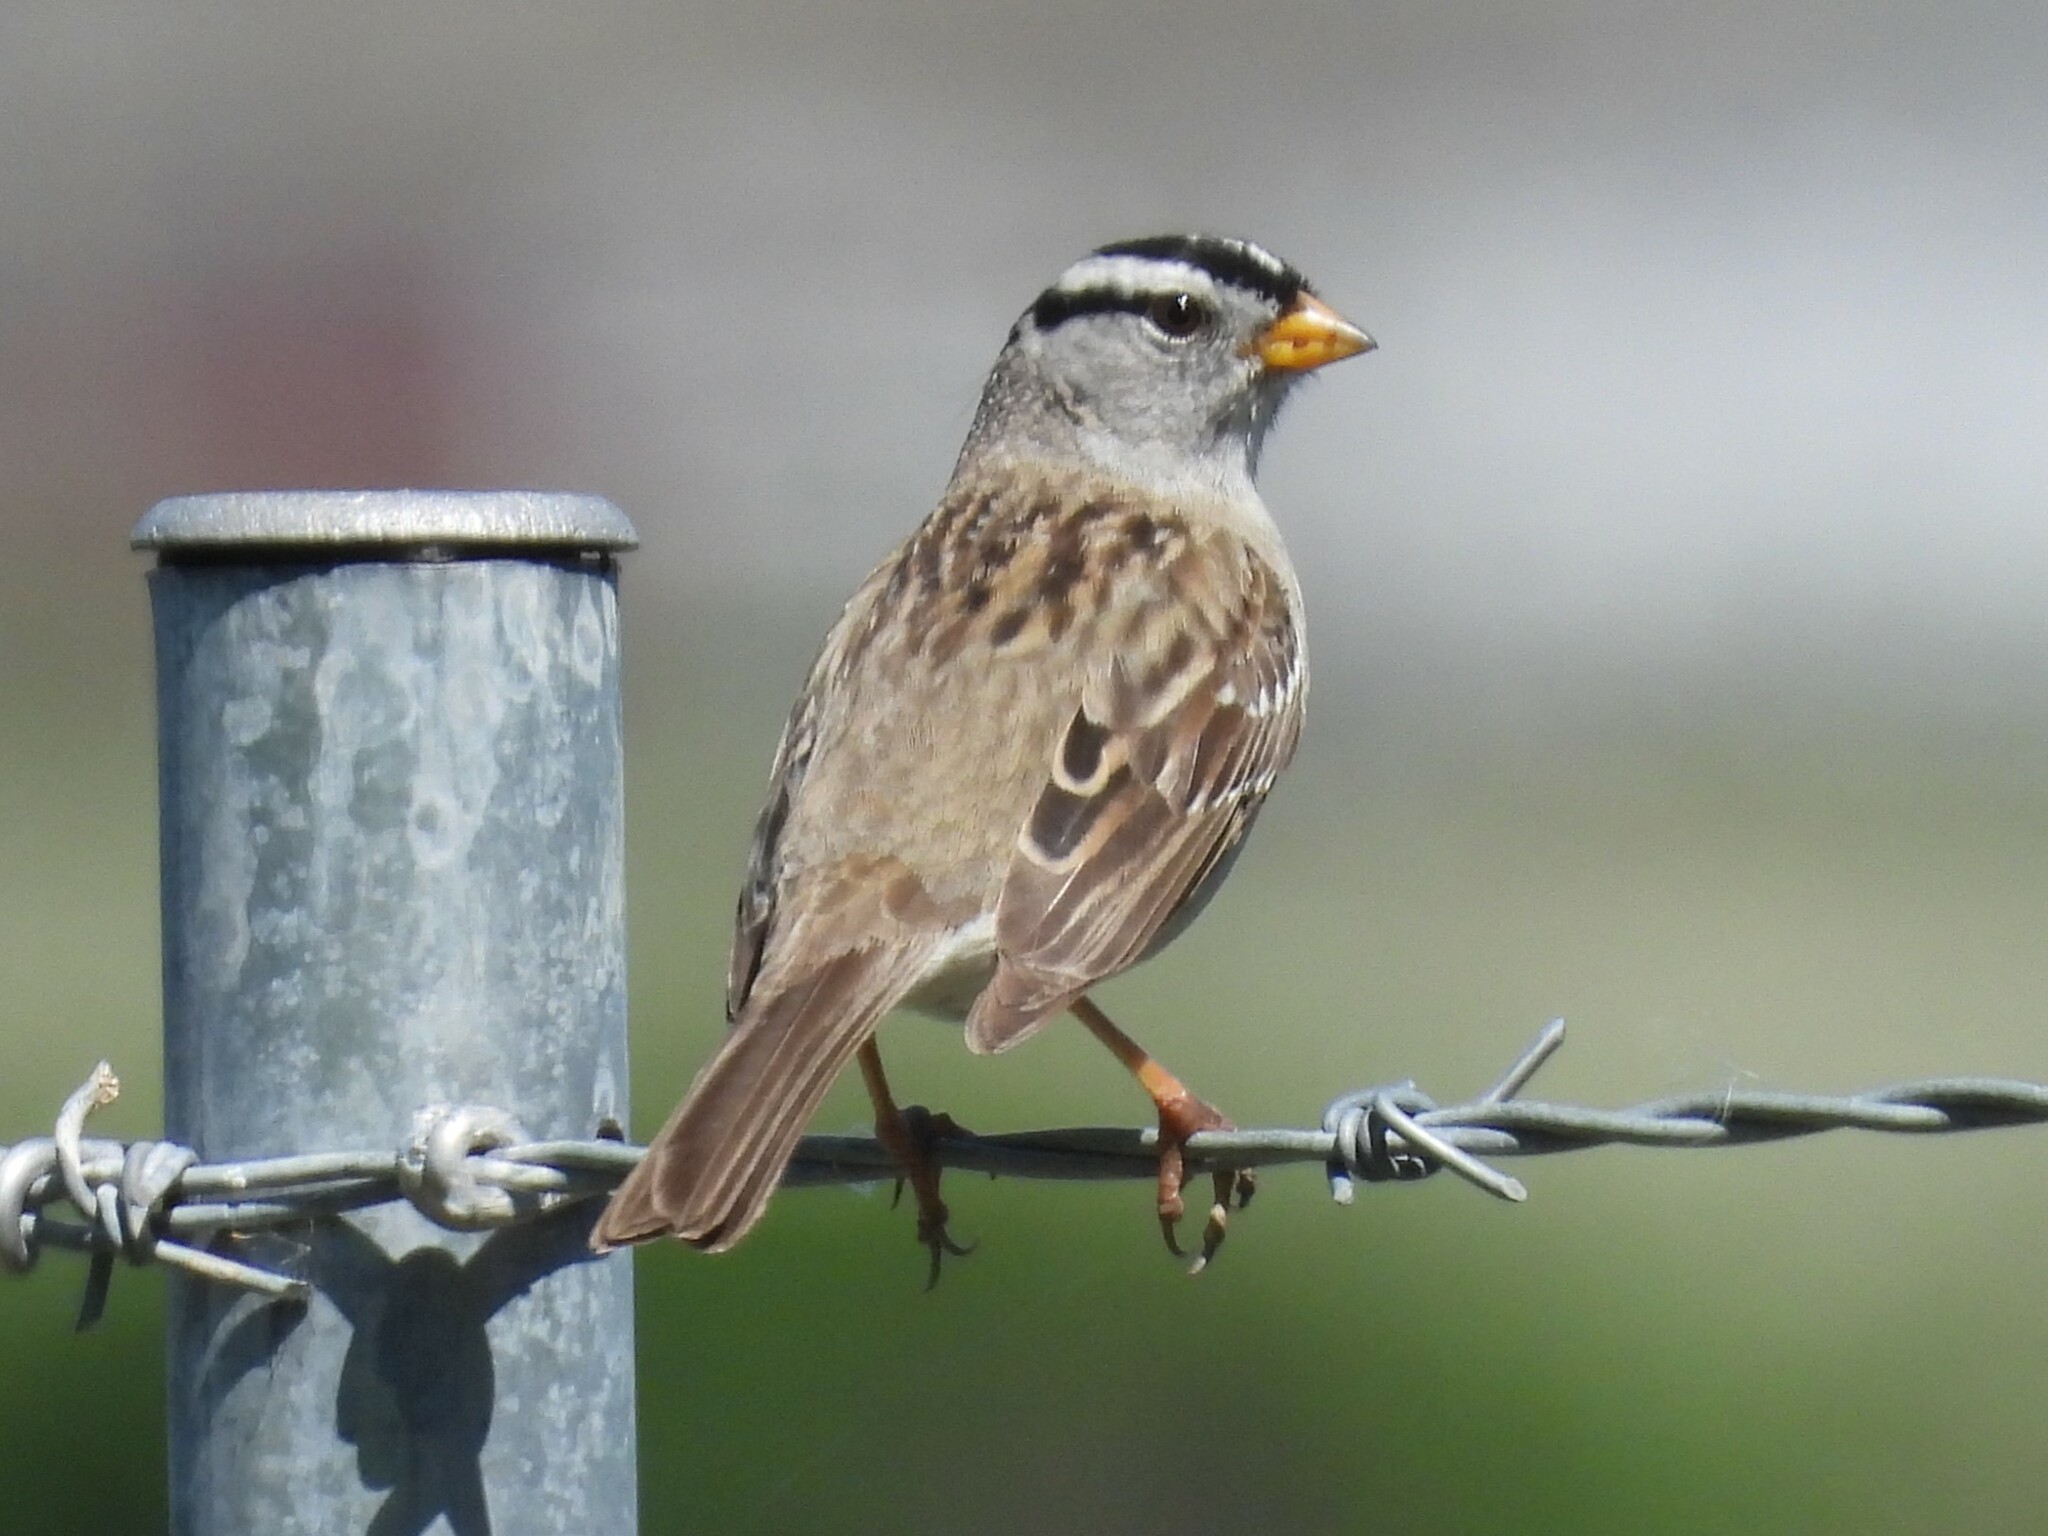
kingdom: Animalia
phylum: Chordata
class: Aves
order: Passeriformes
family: Passerellidae
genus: Zonotrichia
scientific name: Zonotrichia leucophrys
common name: White-crowned sparrow
